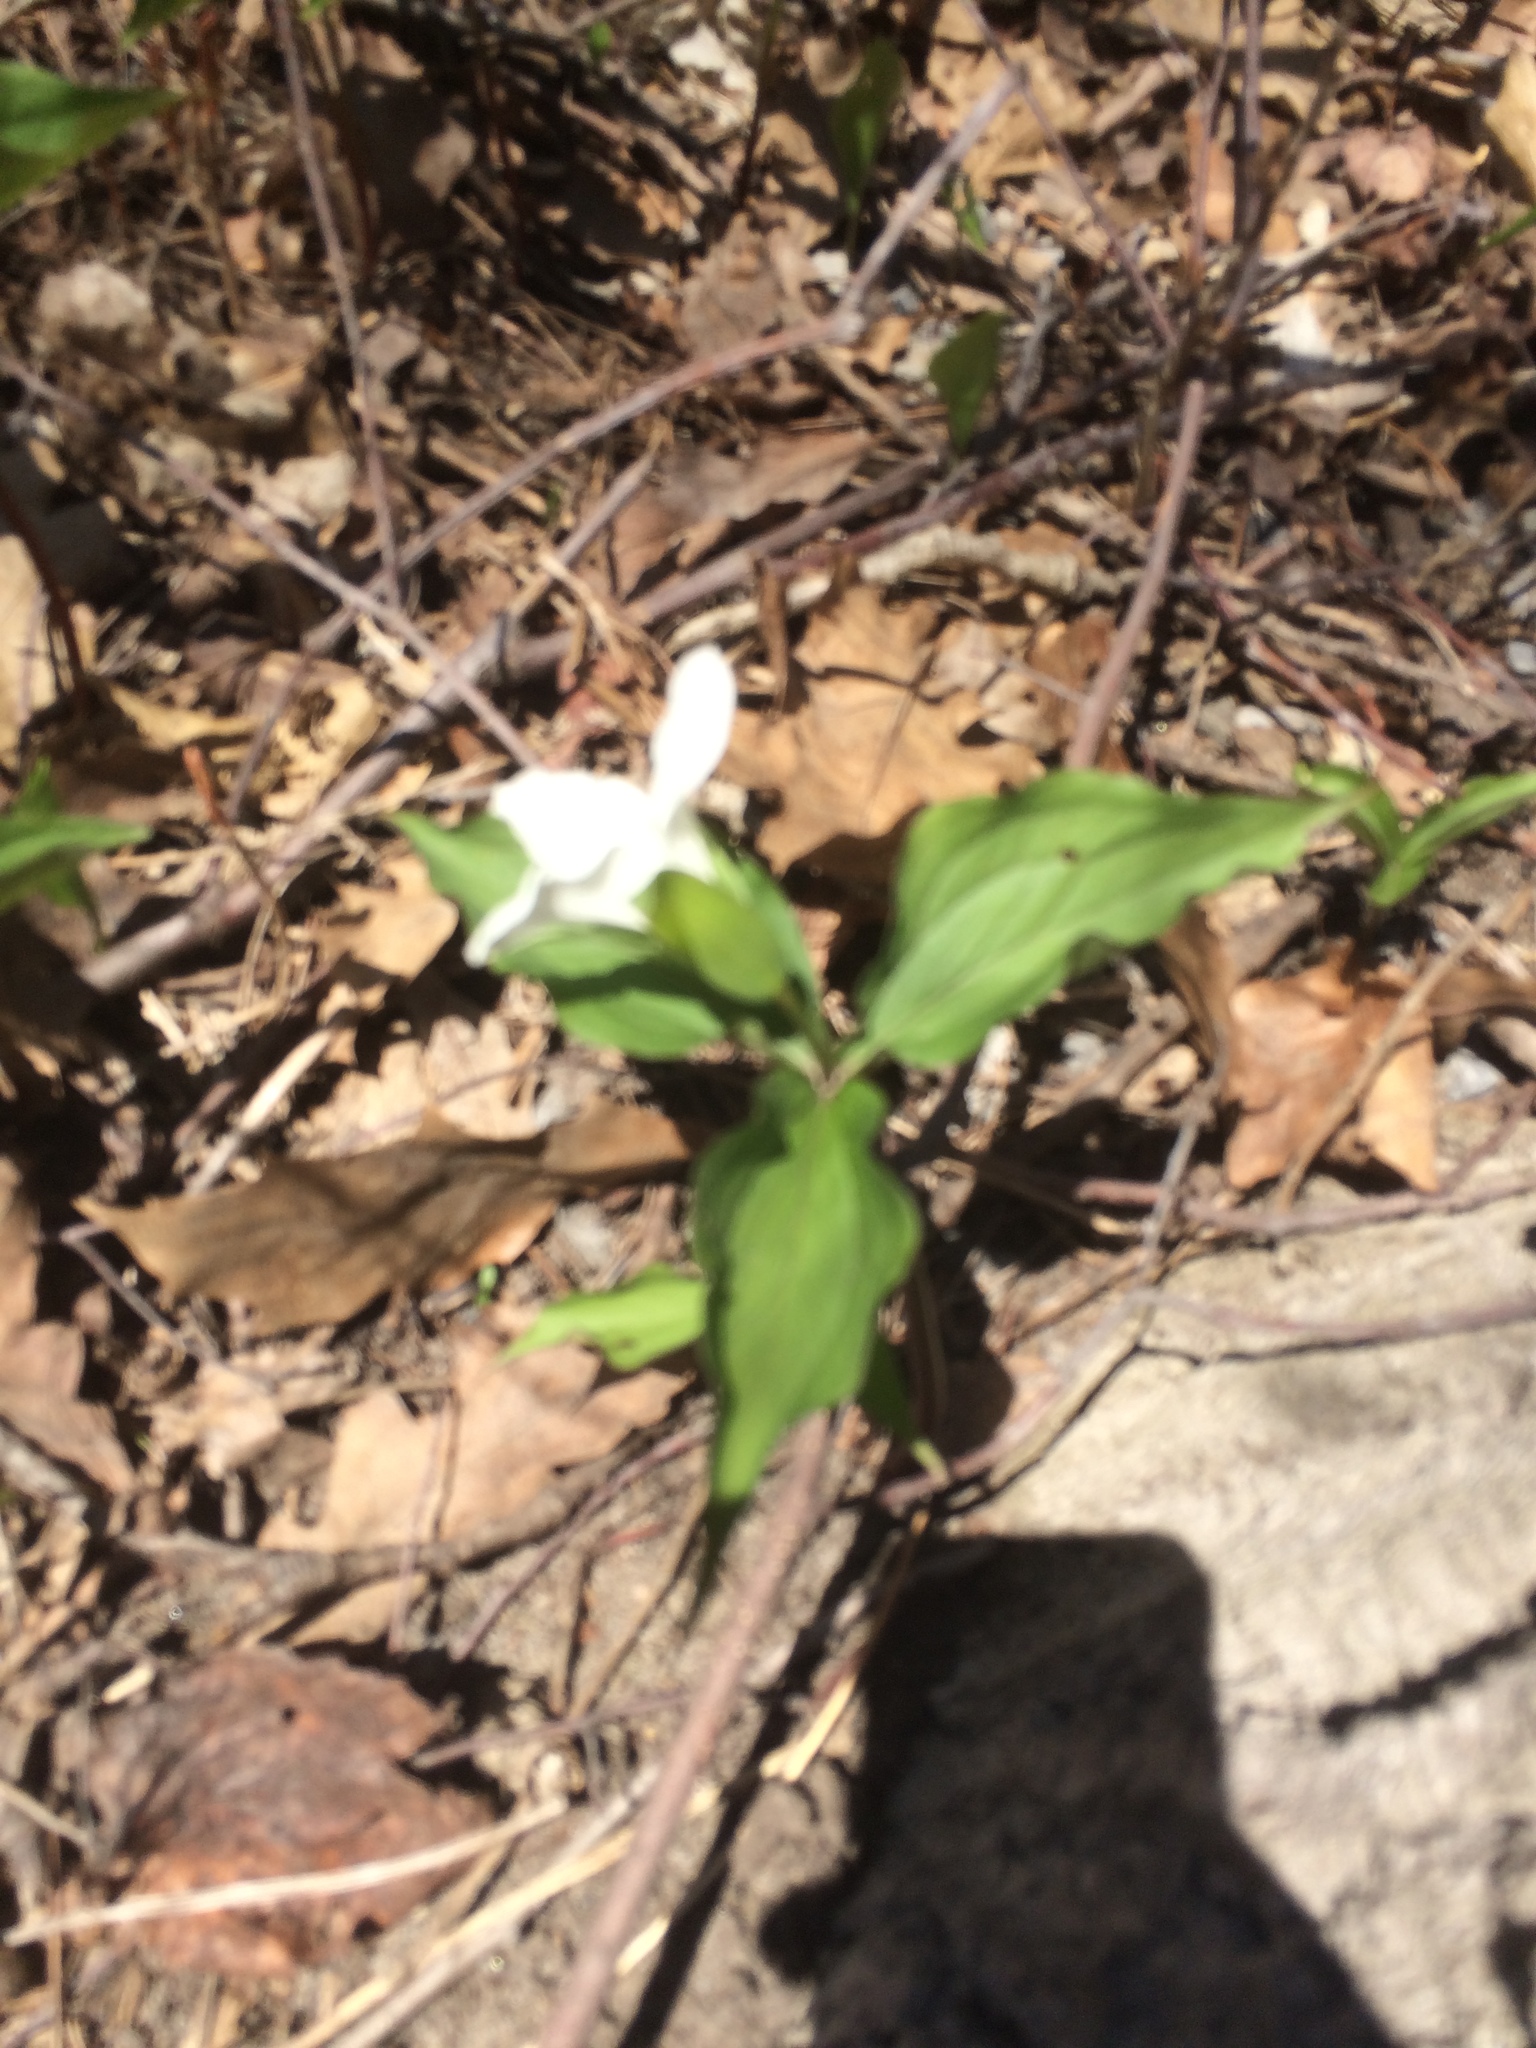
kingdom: Plantae
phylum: Tracheophyta
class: Liliopsida
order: Liliales
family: Melanthiaceae
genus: Trillium
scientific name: Trillium grandiflorum
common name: Great white trillium
